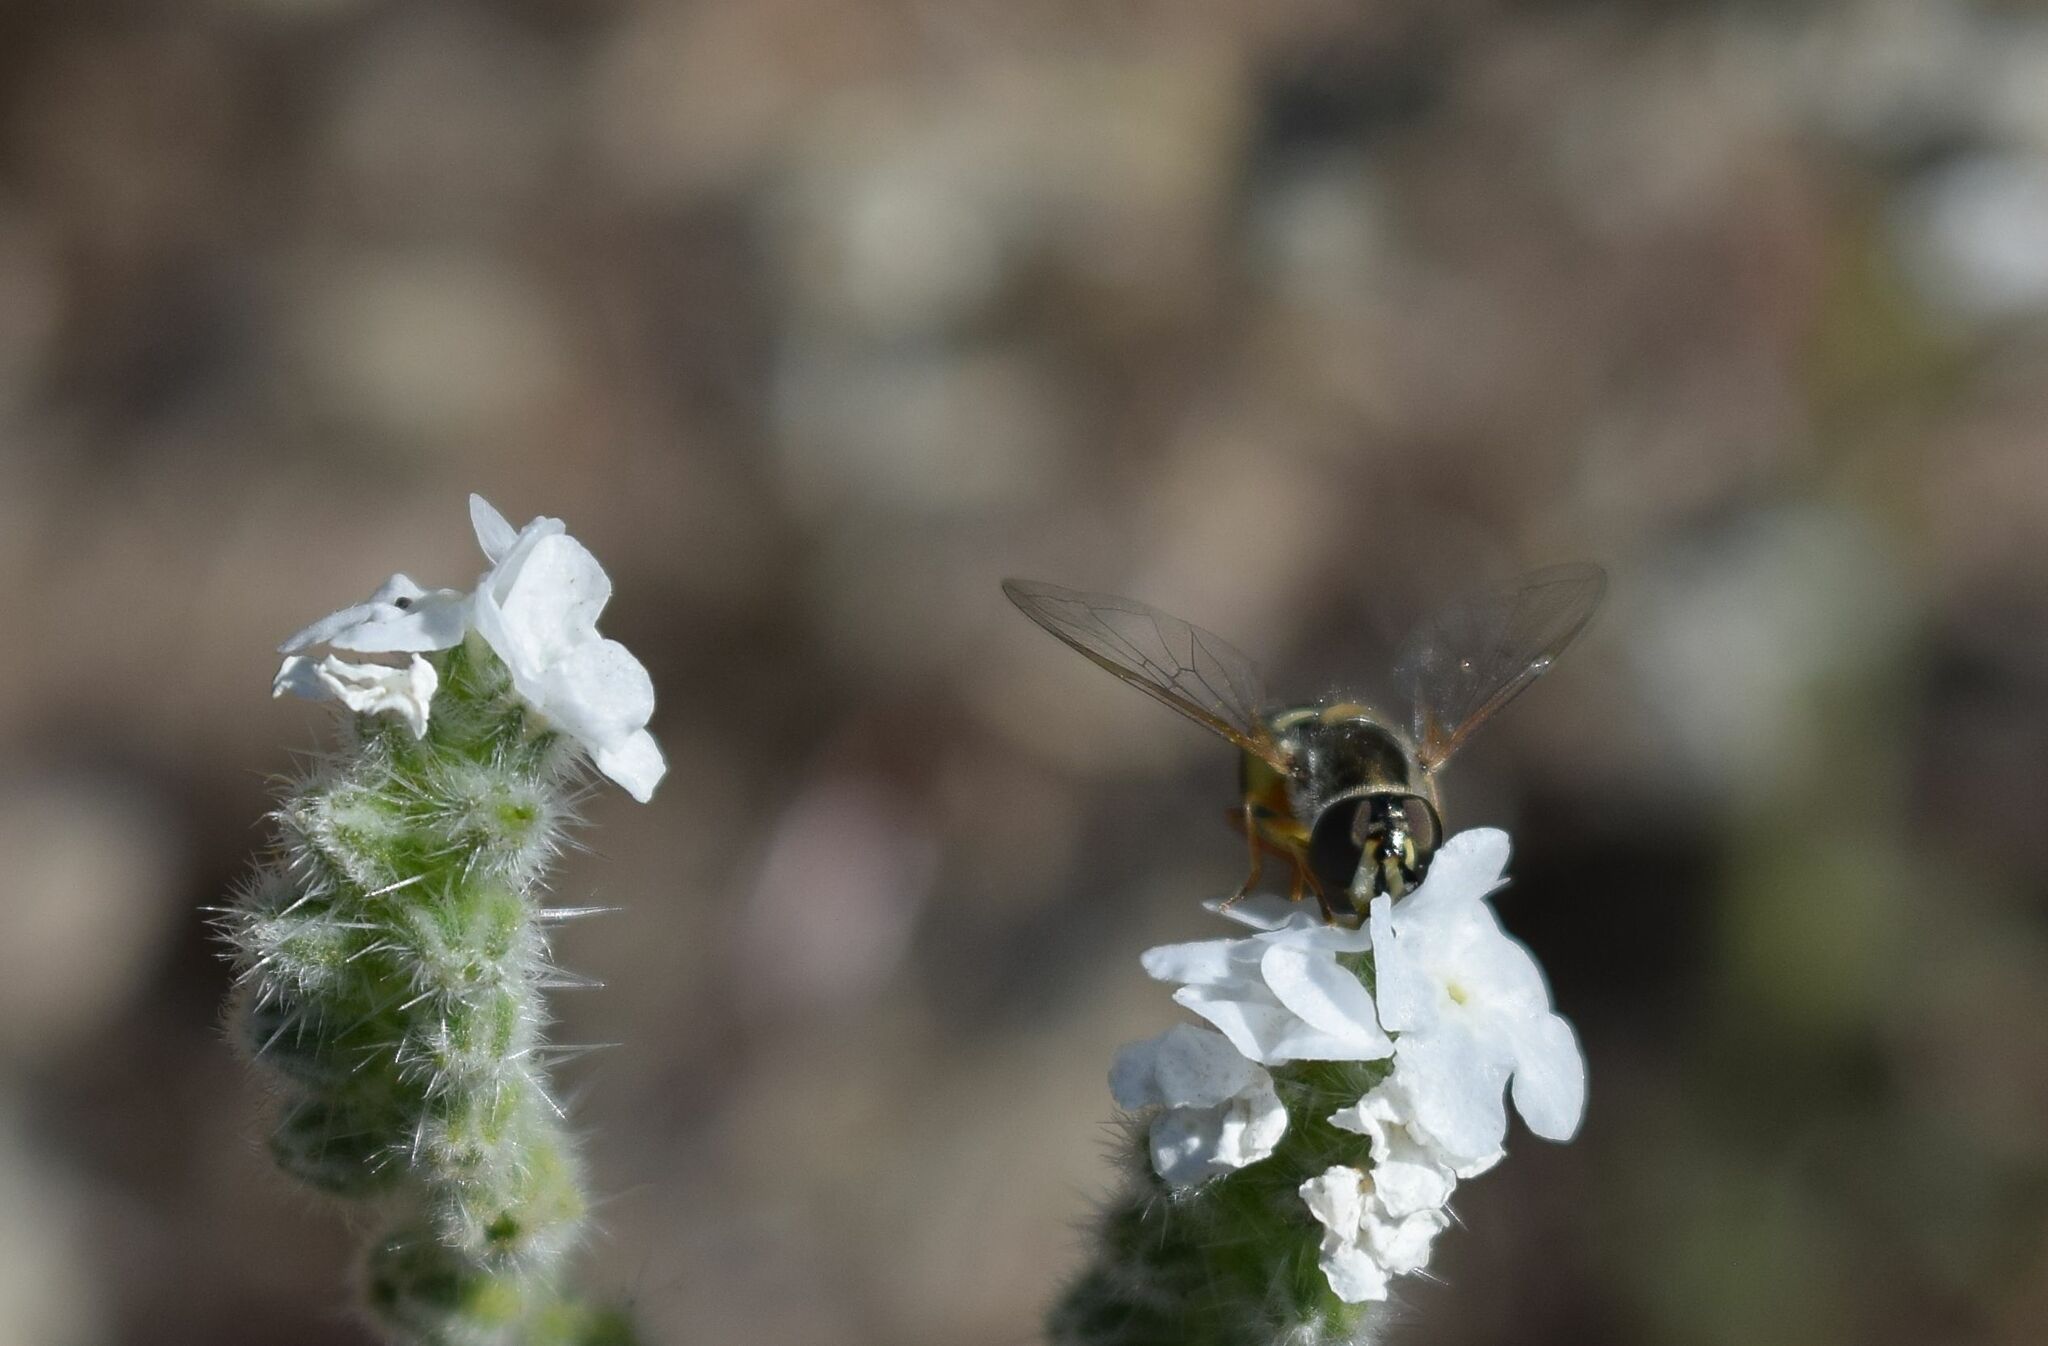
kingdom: Animalia
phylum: Arthropoda
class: Insecta
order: Diptera
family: Syrphidae
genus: Eupeodes
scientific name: Eupeodes volucris
